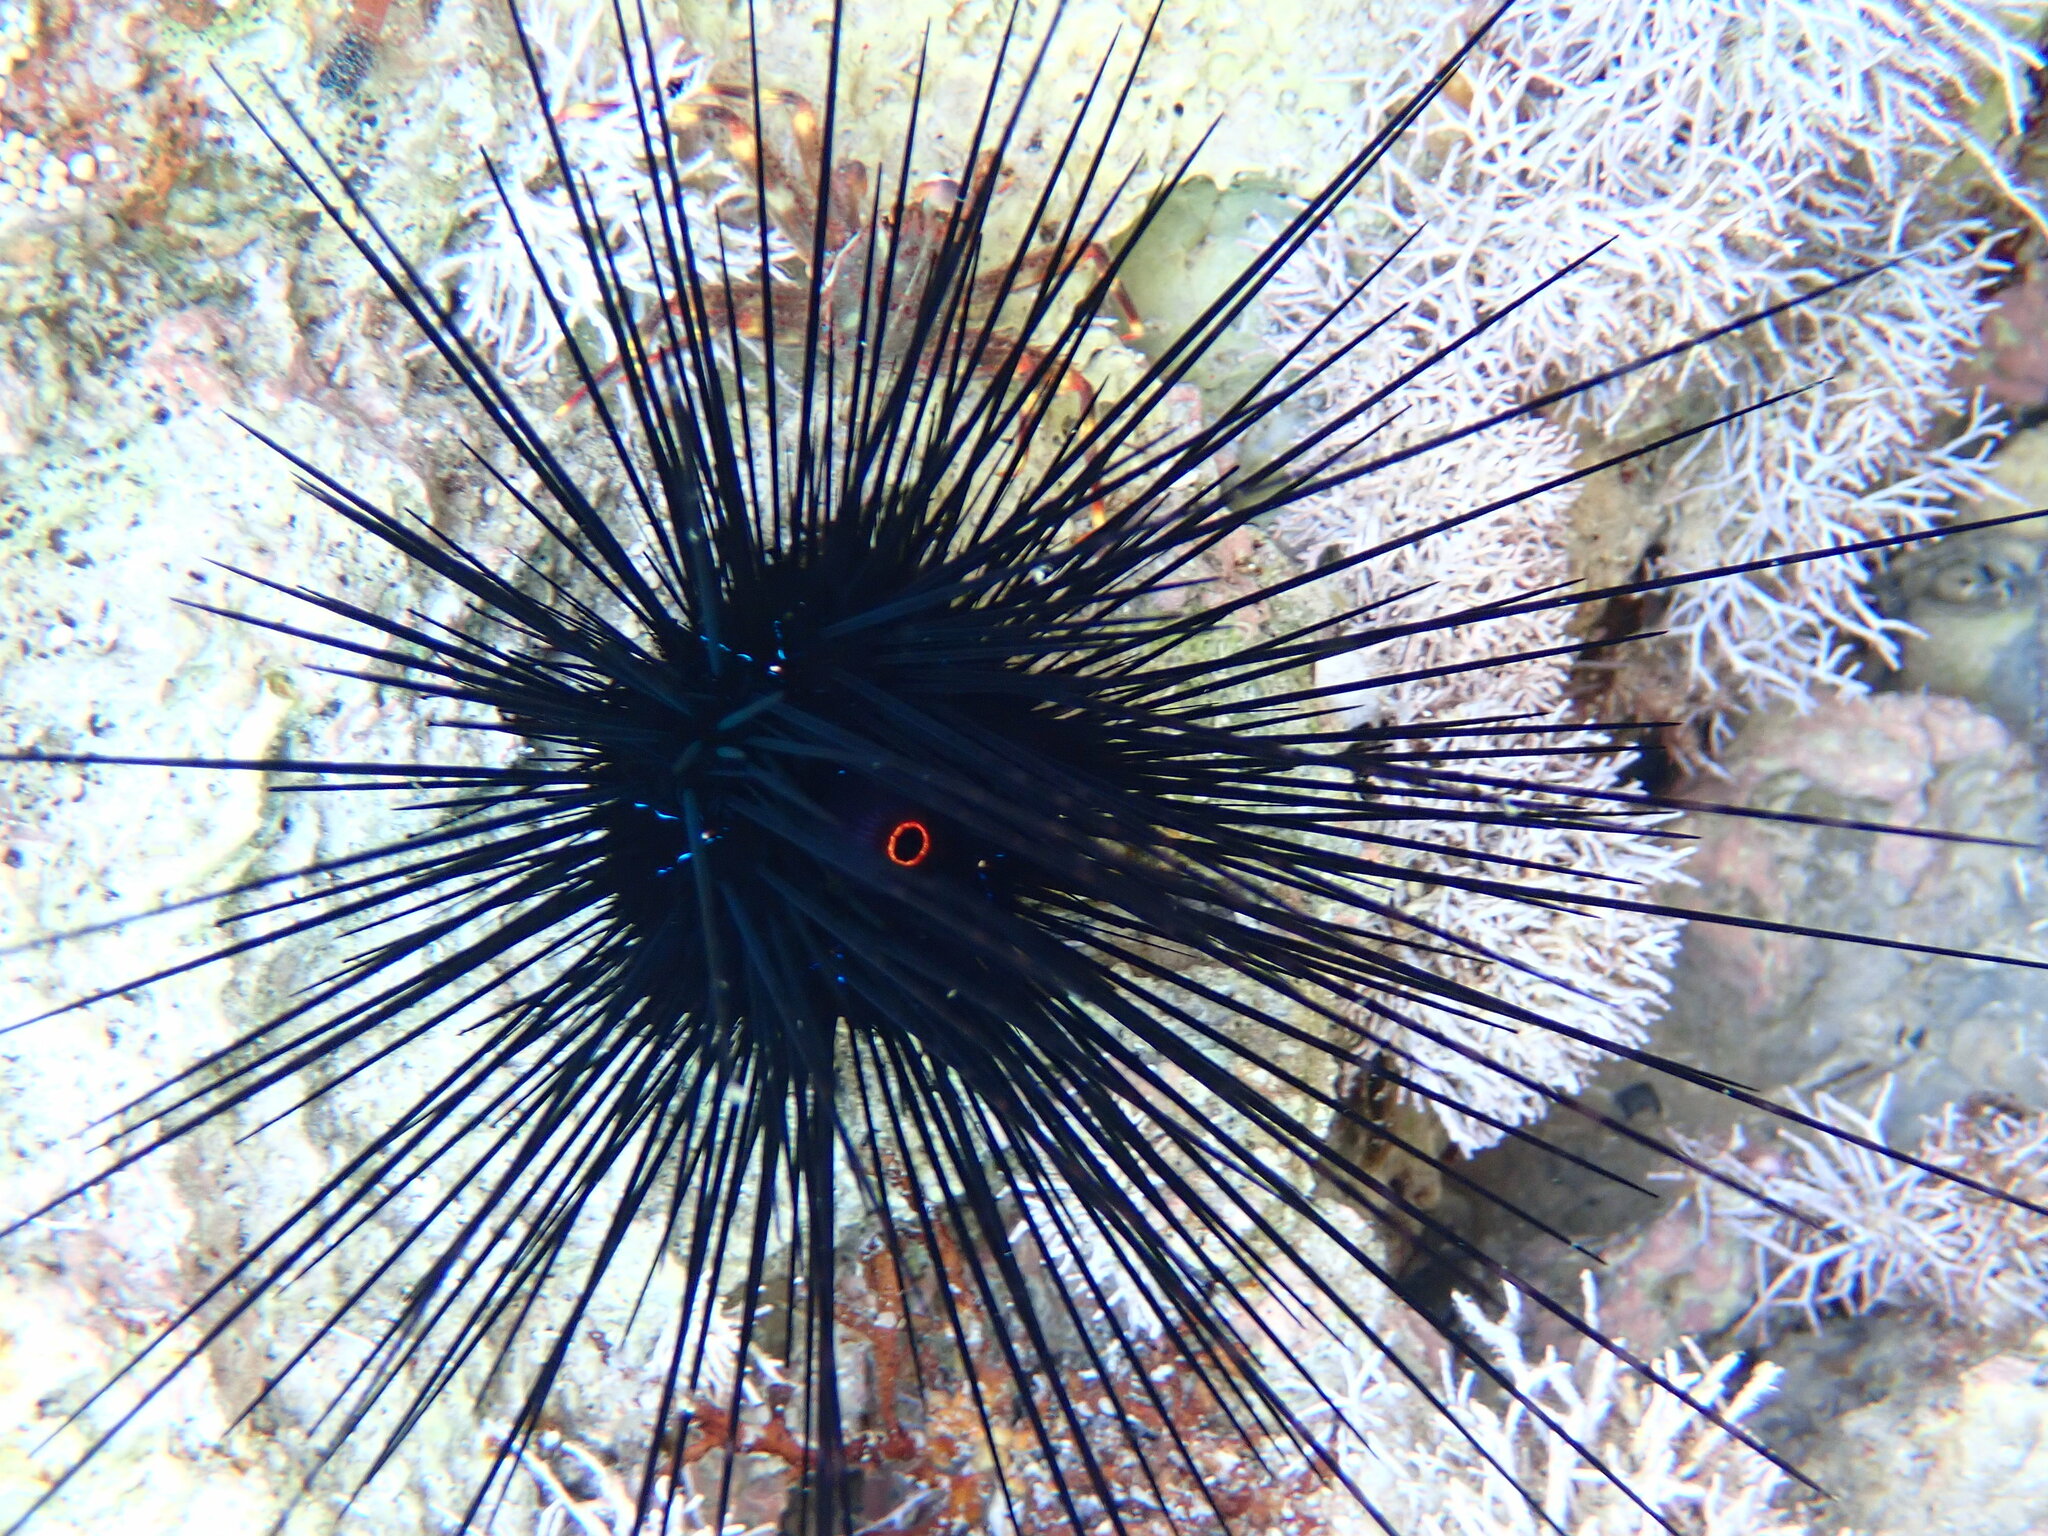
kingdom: Animalia
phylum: Echinodermata
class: Echinoidea
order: Diadematoida
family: Diadematidae
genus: Diadema
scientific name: Diadema setosum
